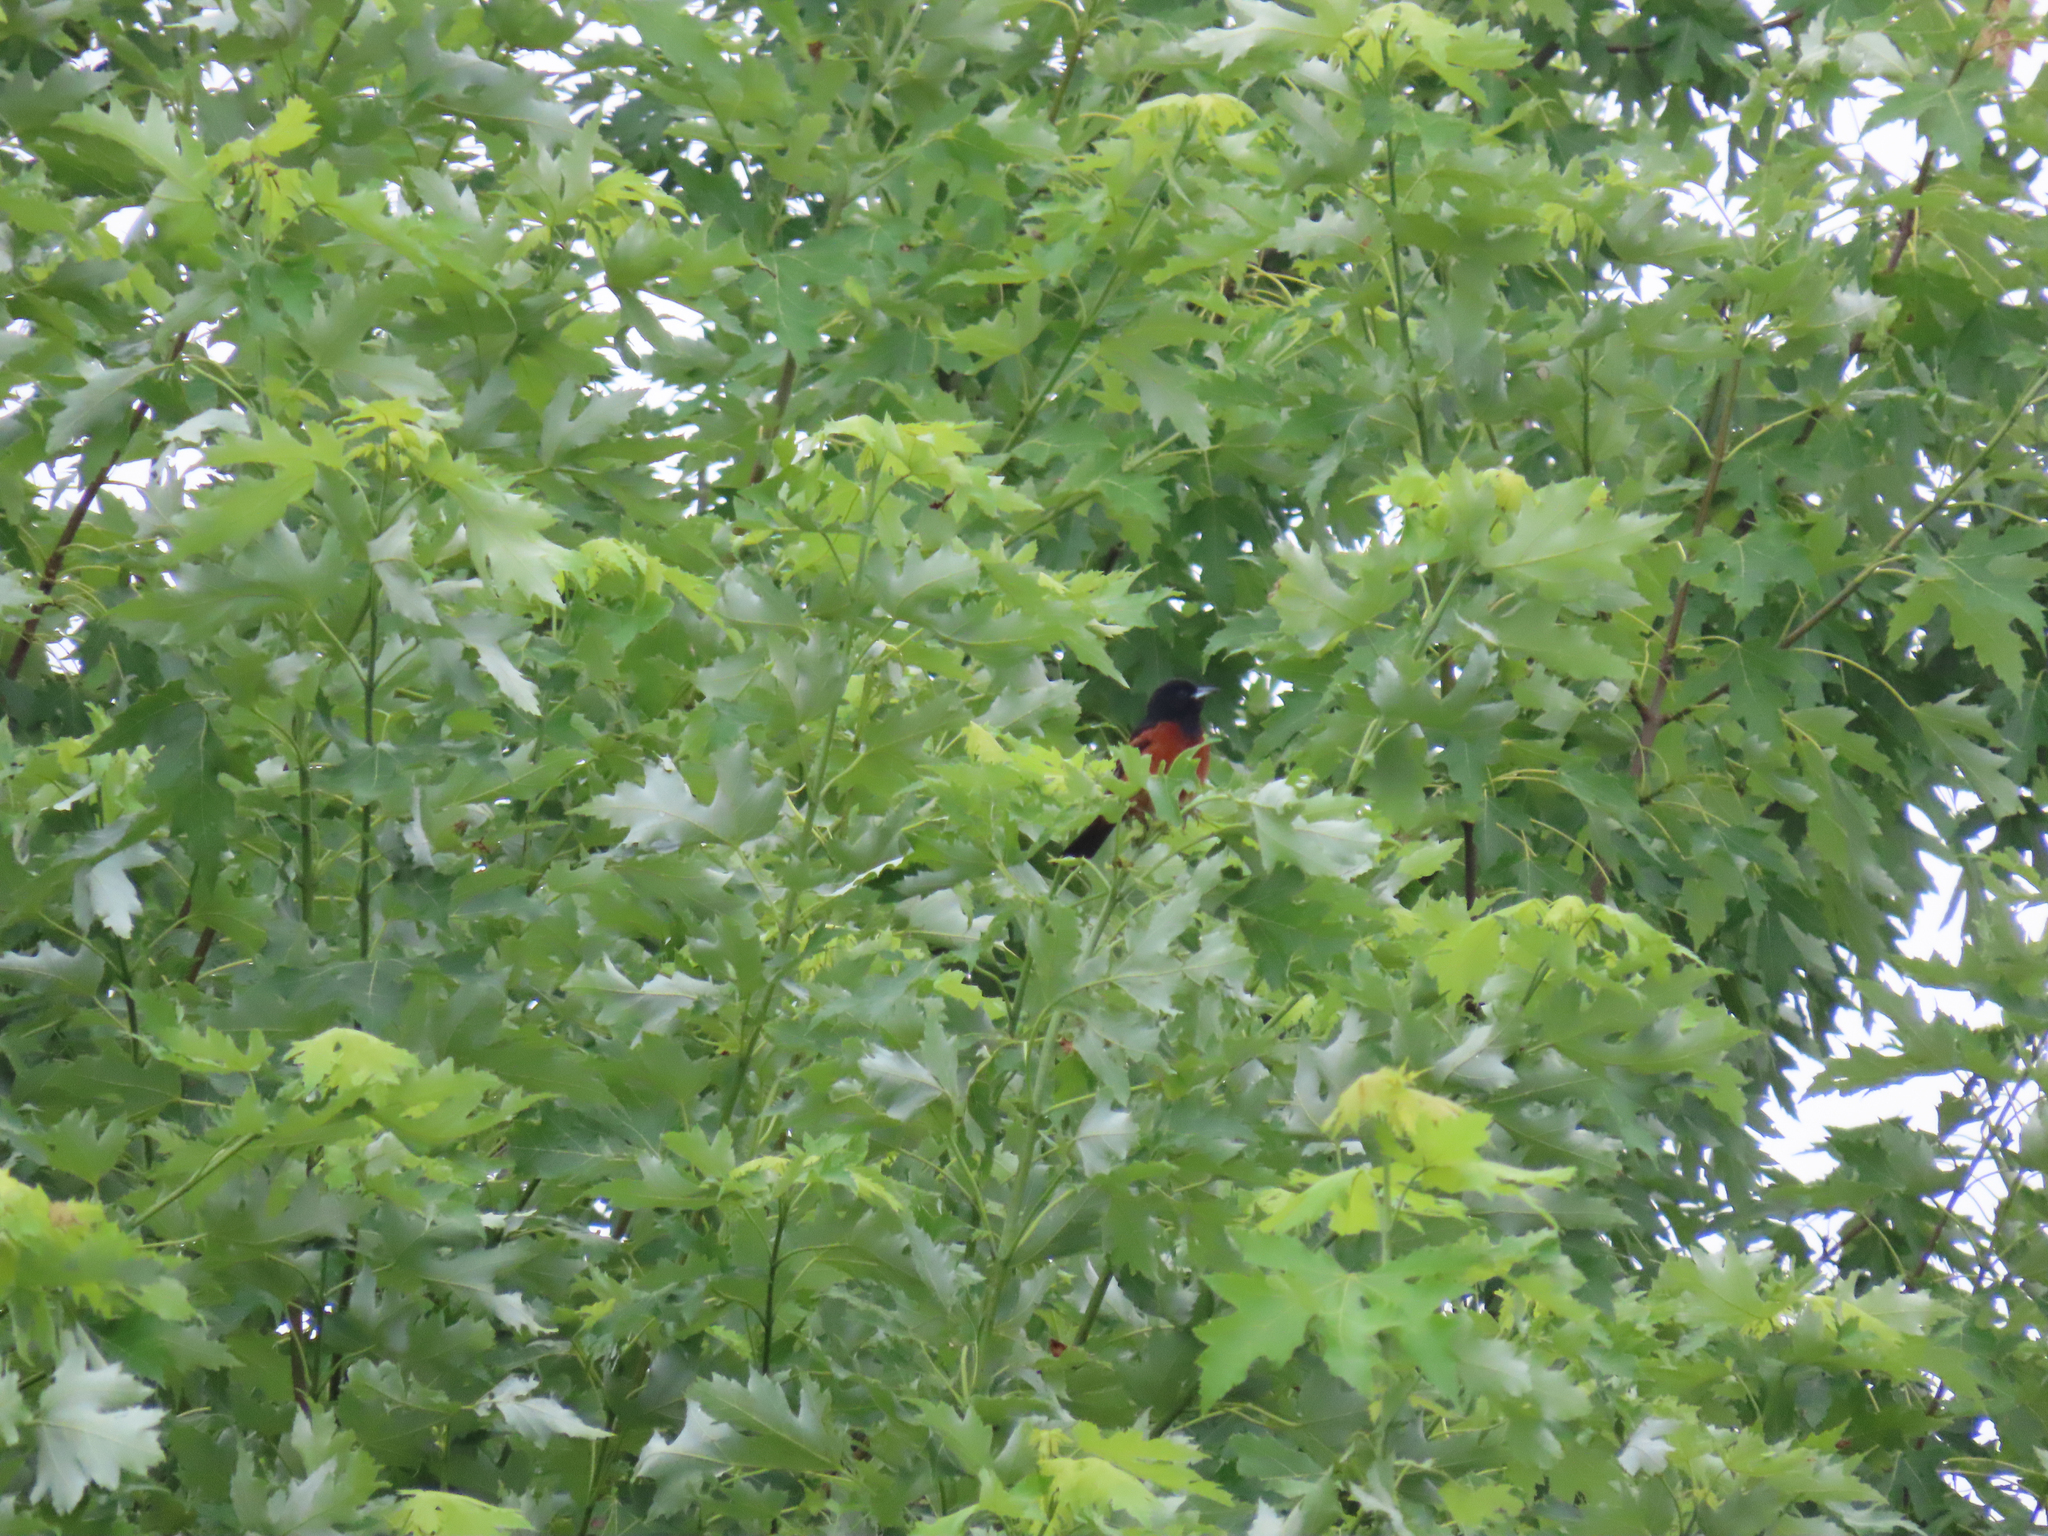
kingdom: Animalia
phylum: Chordata
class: Aves
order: Passeriformes
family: Icteridae
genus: Icterus
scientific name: Icterus spurius
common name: Orchard oriole
